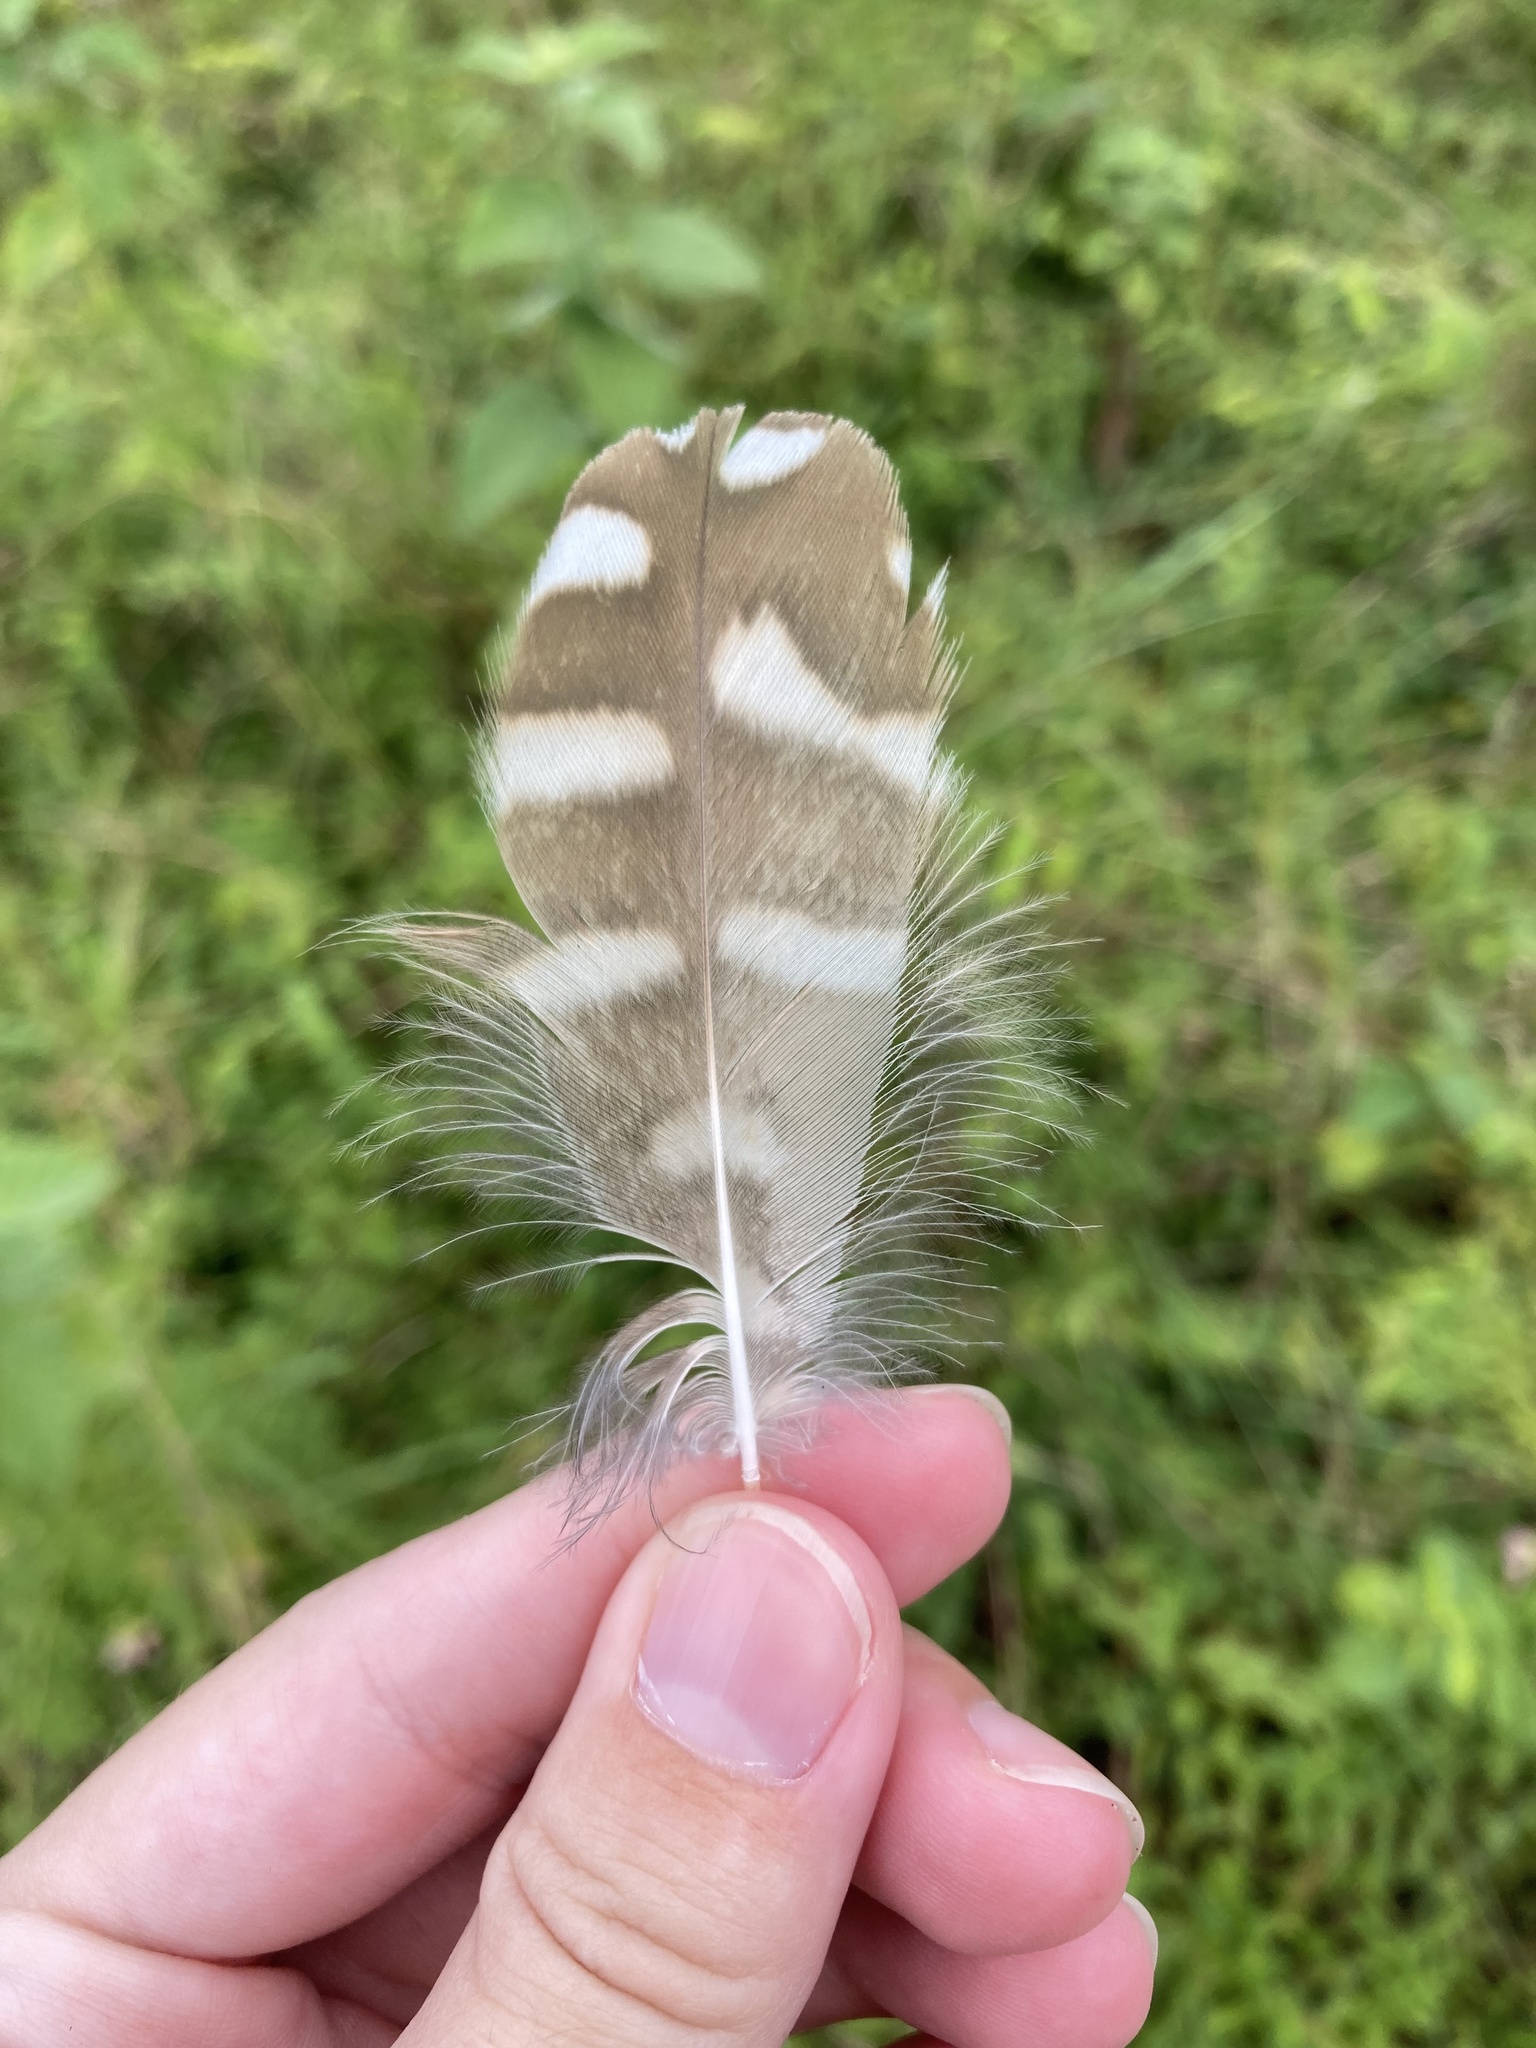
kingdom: Animalia
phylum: Chordata
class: Aves
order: Strigiformes
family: Strigidae
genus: Athene
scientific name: Athene cunicularia
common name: Burrowing owl
